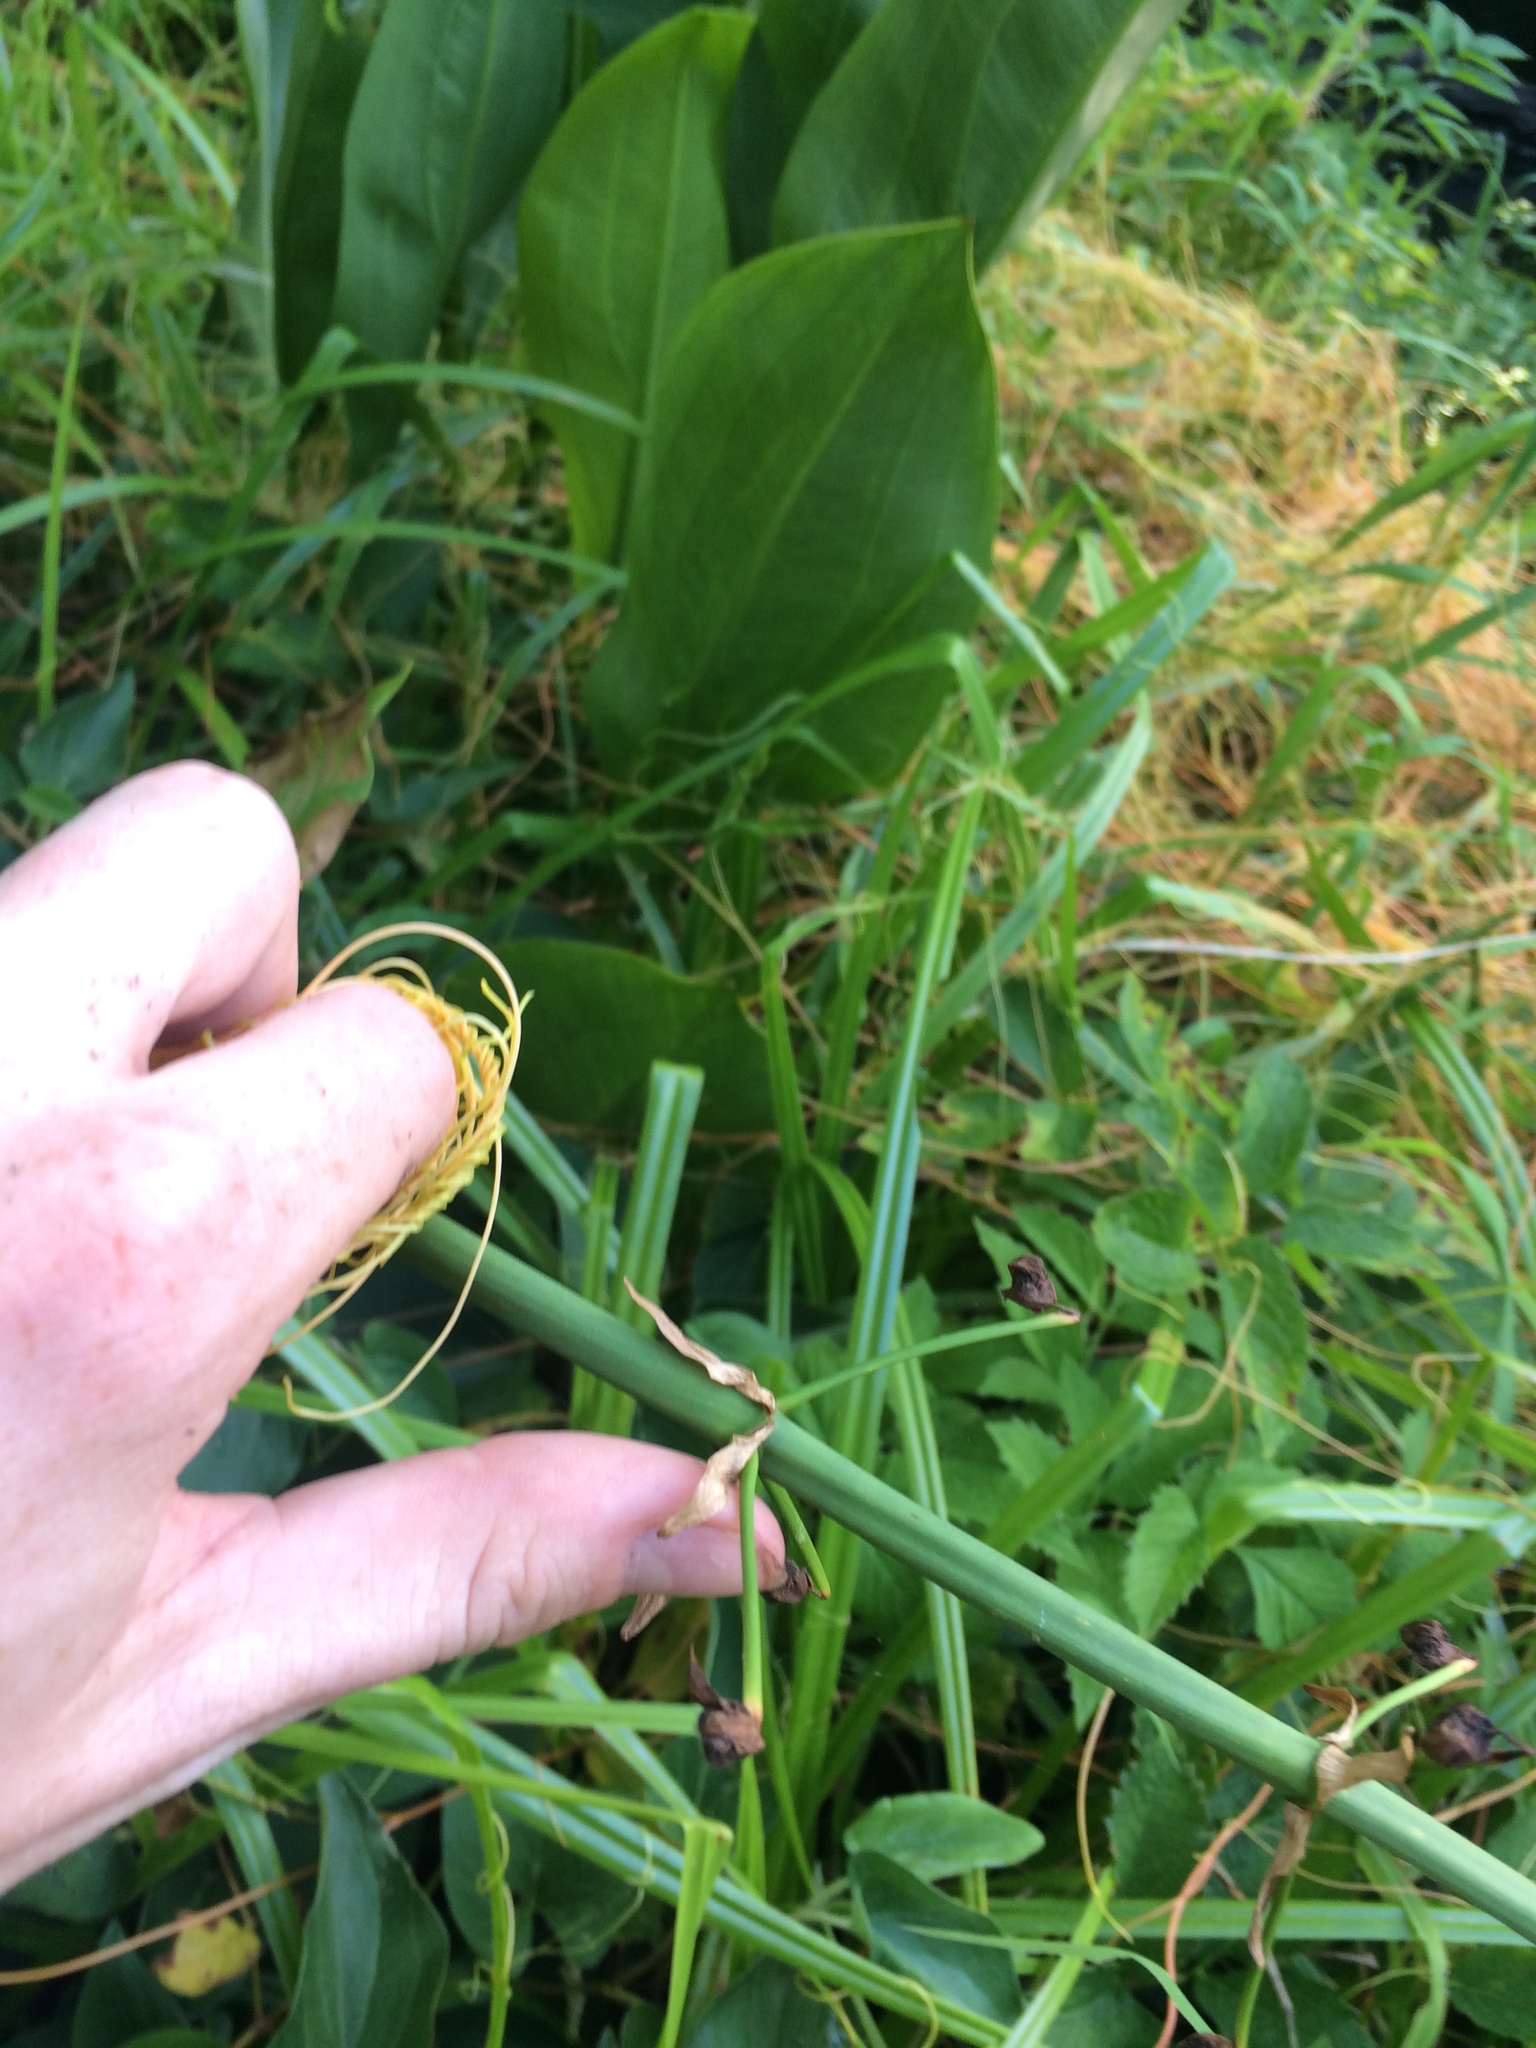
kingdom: Plantae
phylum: Tracheophyta
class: Liliopsida
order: Alismatales
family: Alismataceae
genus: Sagittaria
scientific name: Sagittaria lancifolia
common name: Lance-leaf arrowhead
